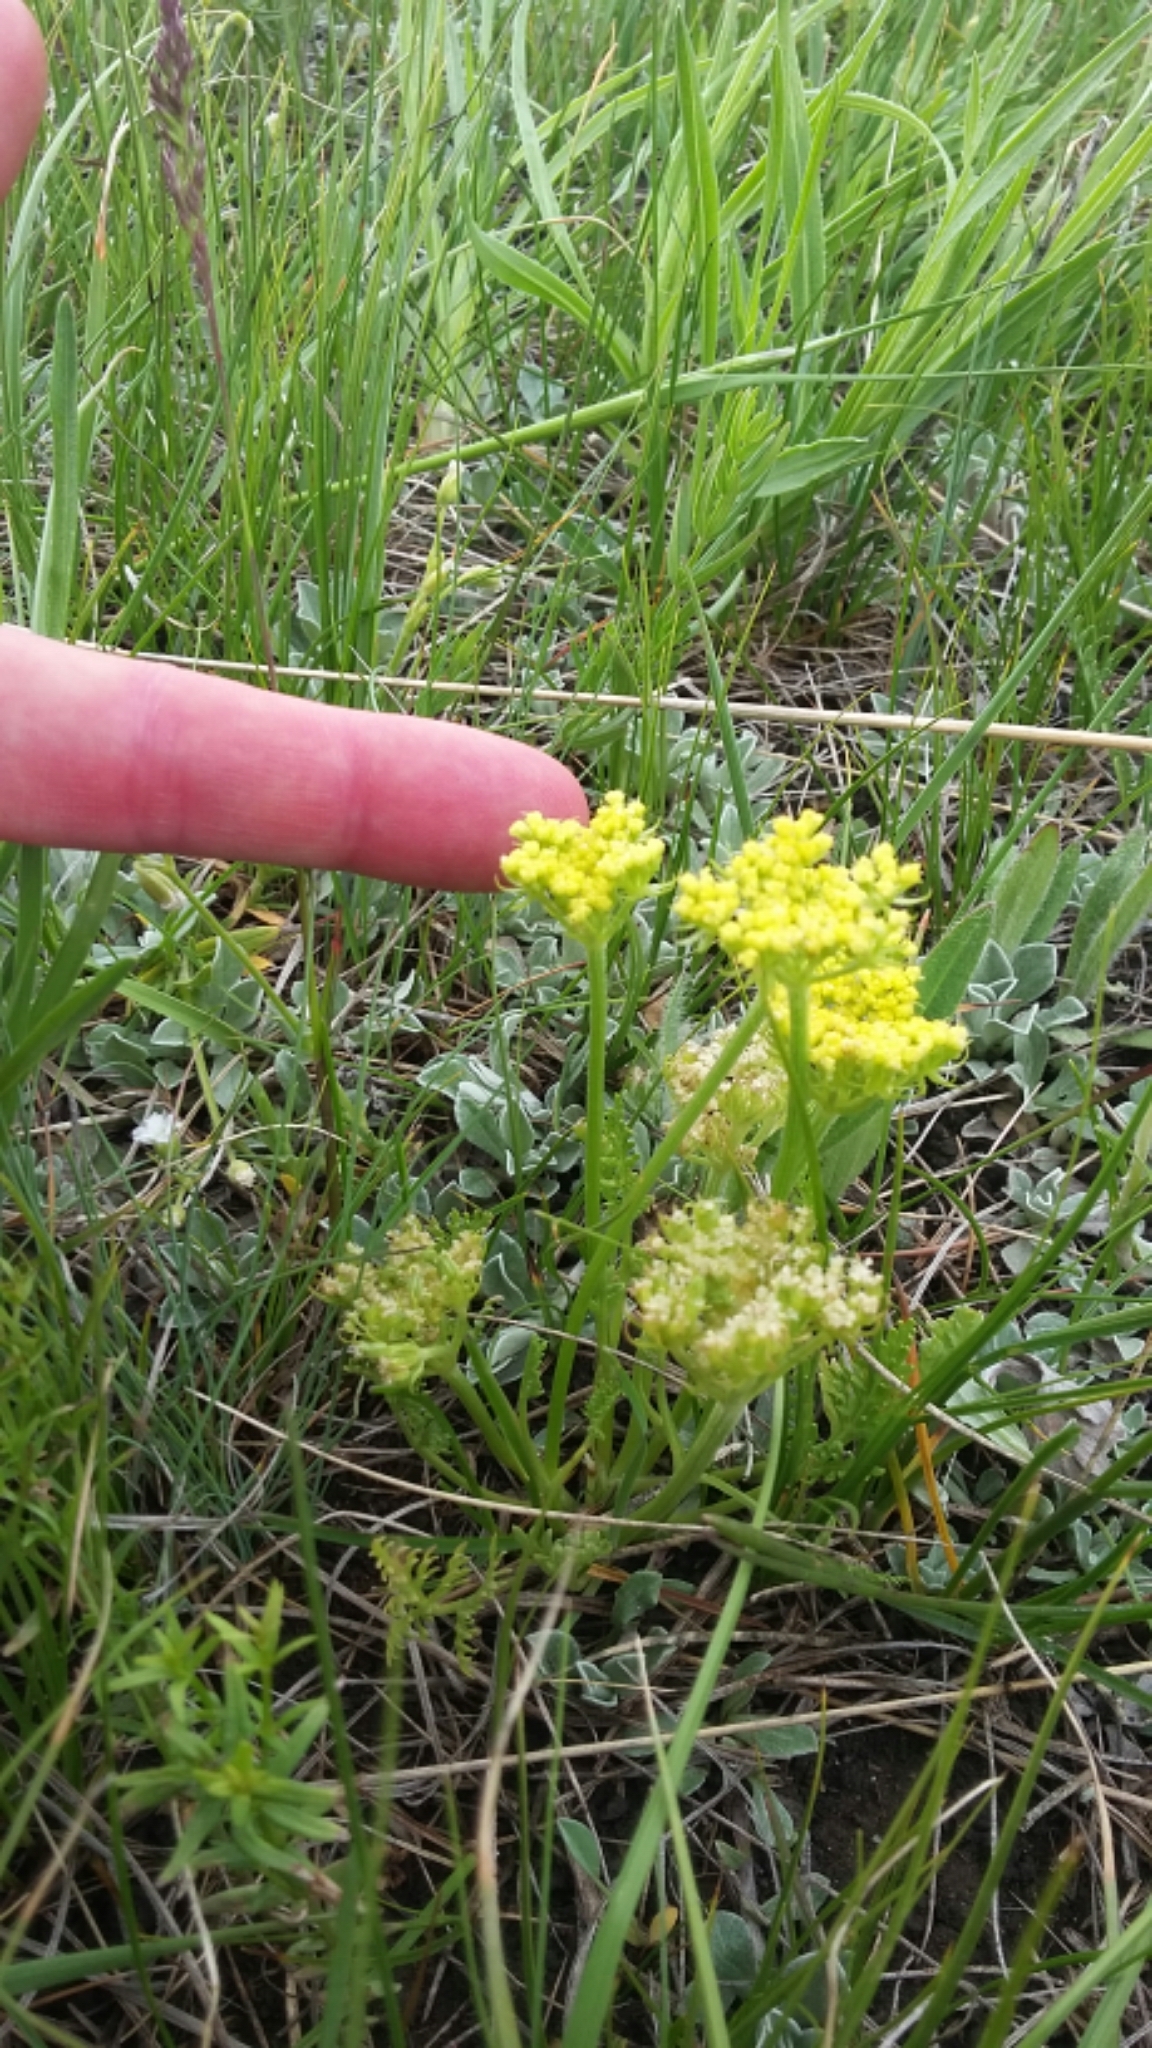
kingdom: Plantae
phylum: Tracheophyta
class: Magnoliopsida
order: Apiales
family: Apiaceae
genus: Musineon
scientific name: Musineon divaricatum
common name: Plains musineon
